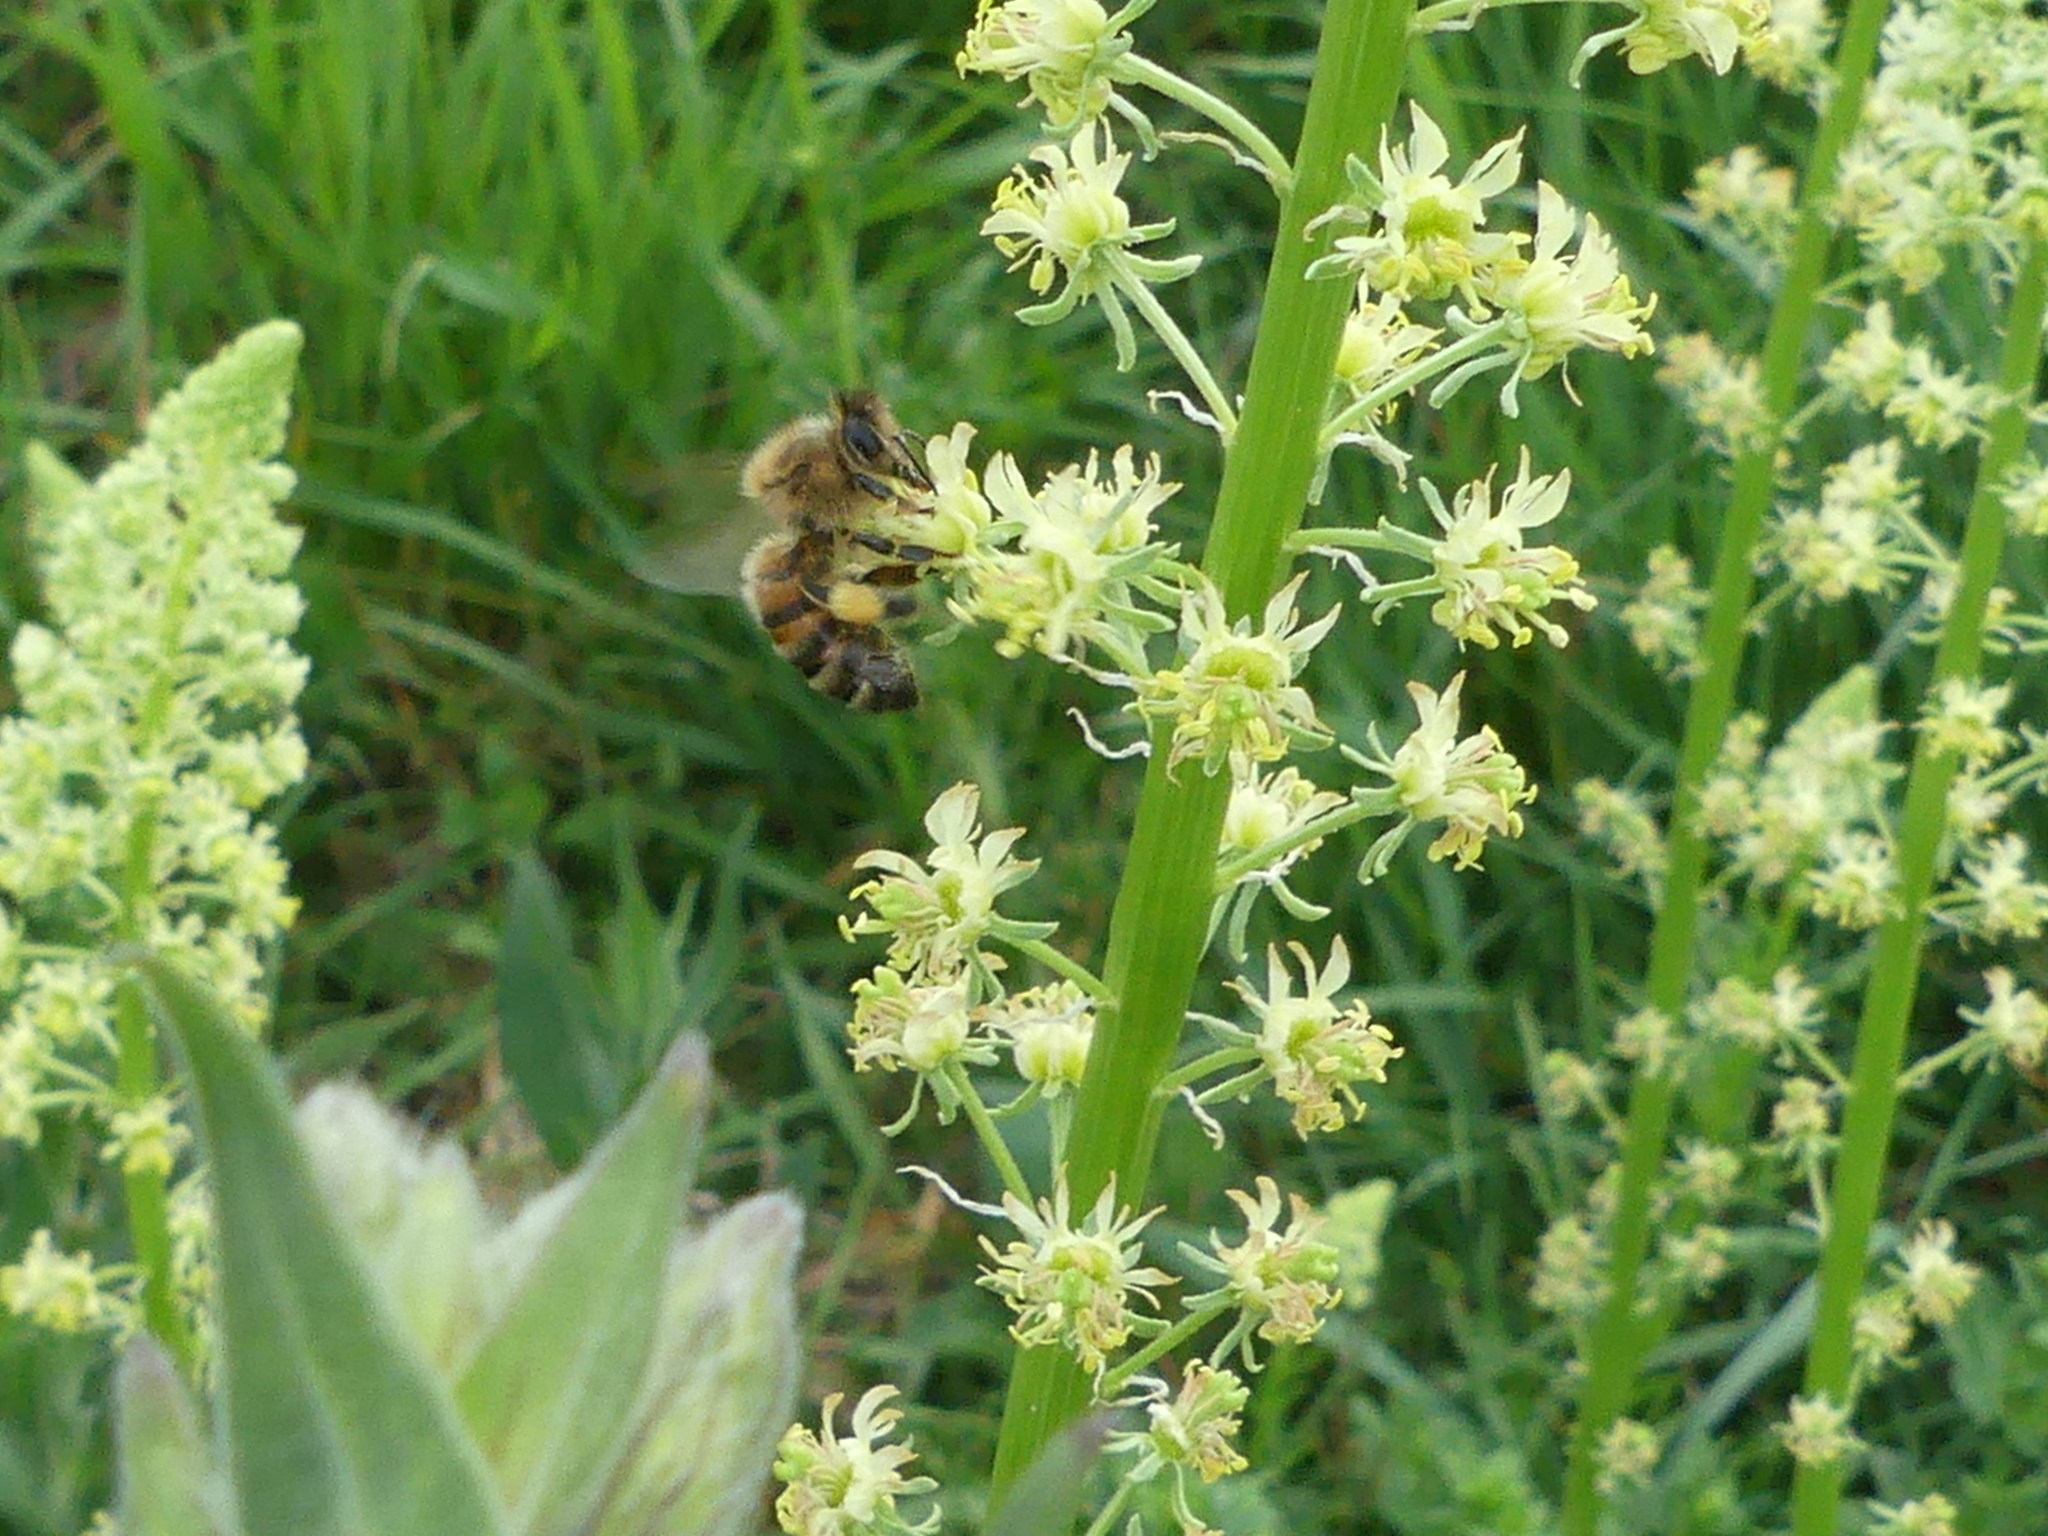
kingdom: Animalia
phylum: Arthropoda
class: Insecta
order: Hymenoptera
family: Apidae
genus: Apis
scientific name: Apis mellifera
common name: Honey bee
